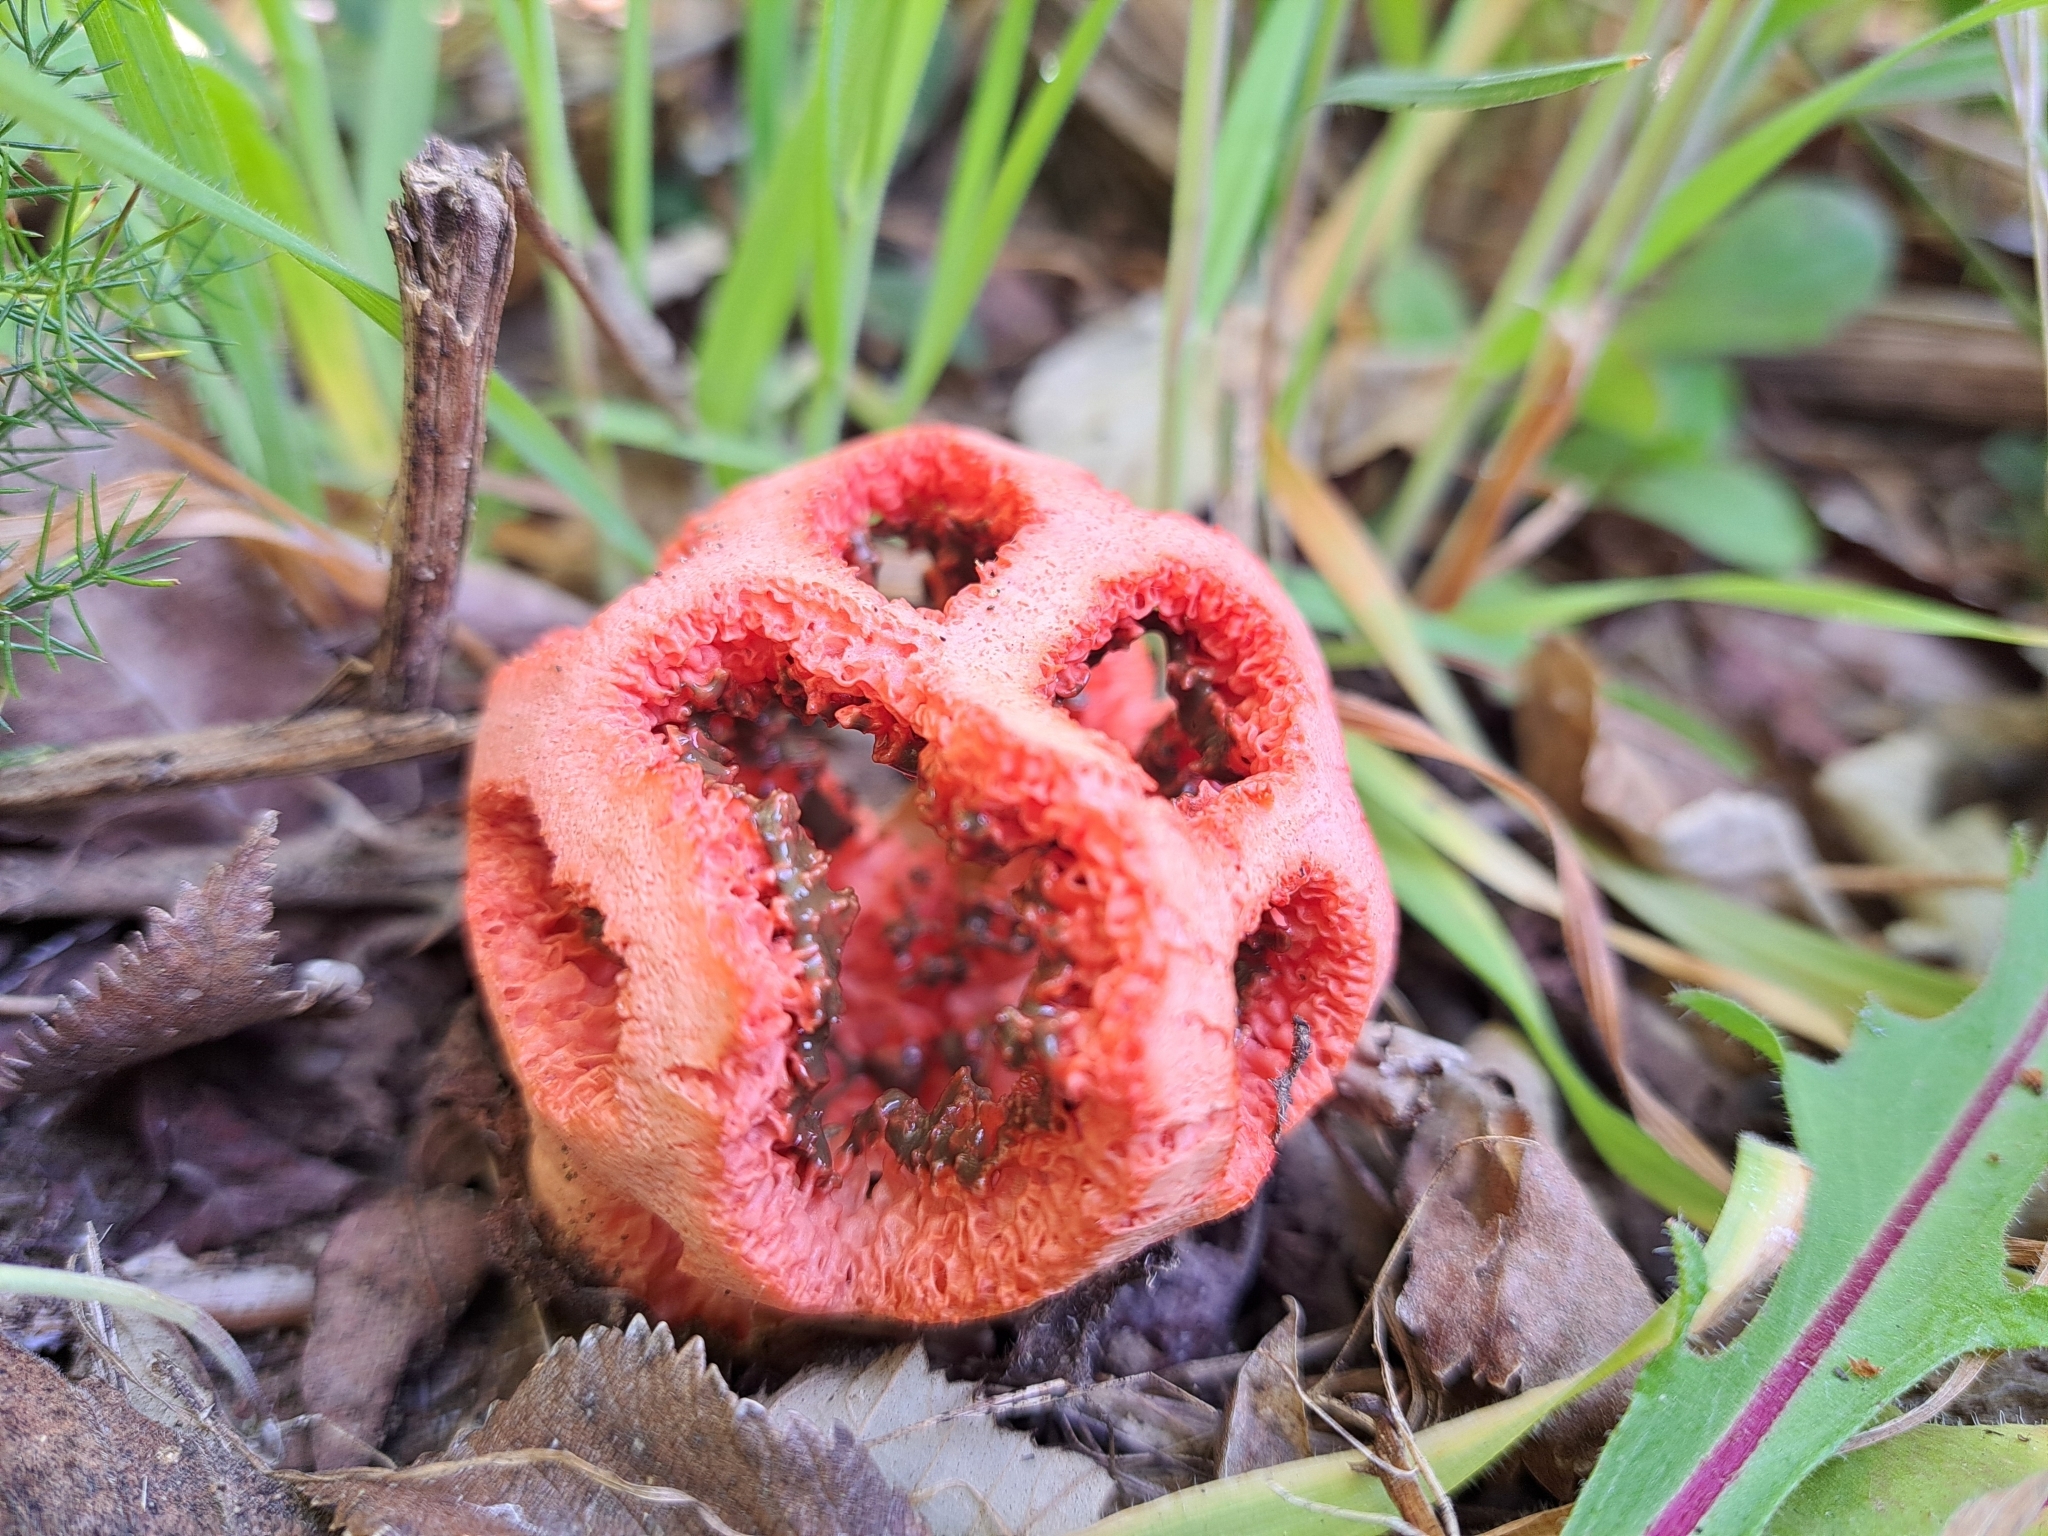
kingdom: Fungi
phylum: Basidiomycota
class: Agaricomycetes
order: Phallales
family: Phallaceae
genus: Clathrus
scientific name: Clathrus ruber
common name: Red cage
